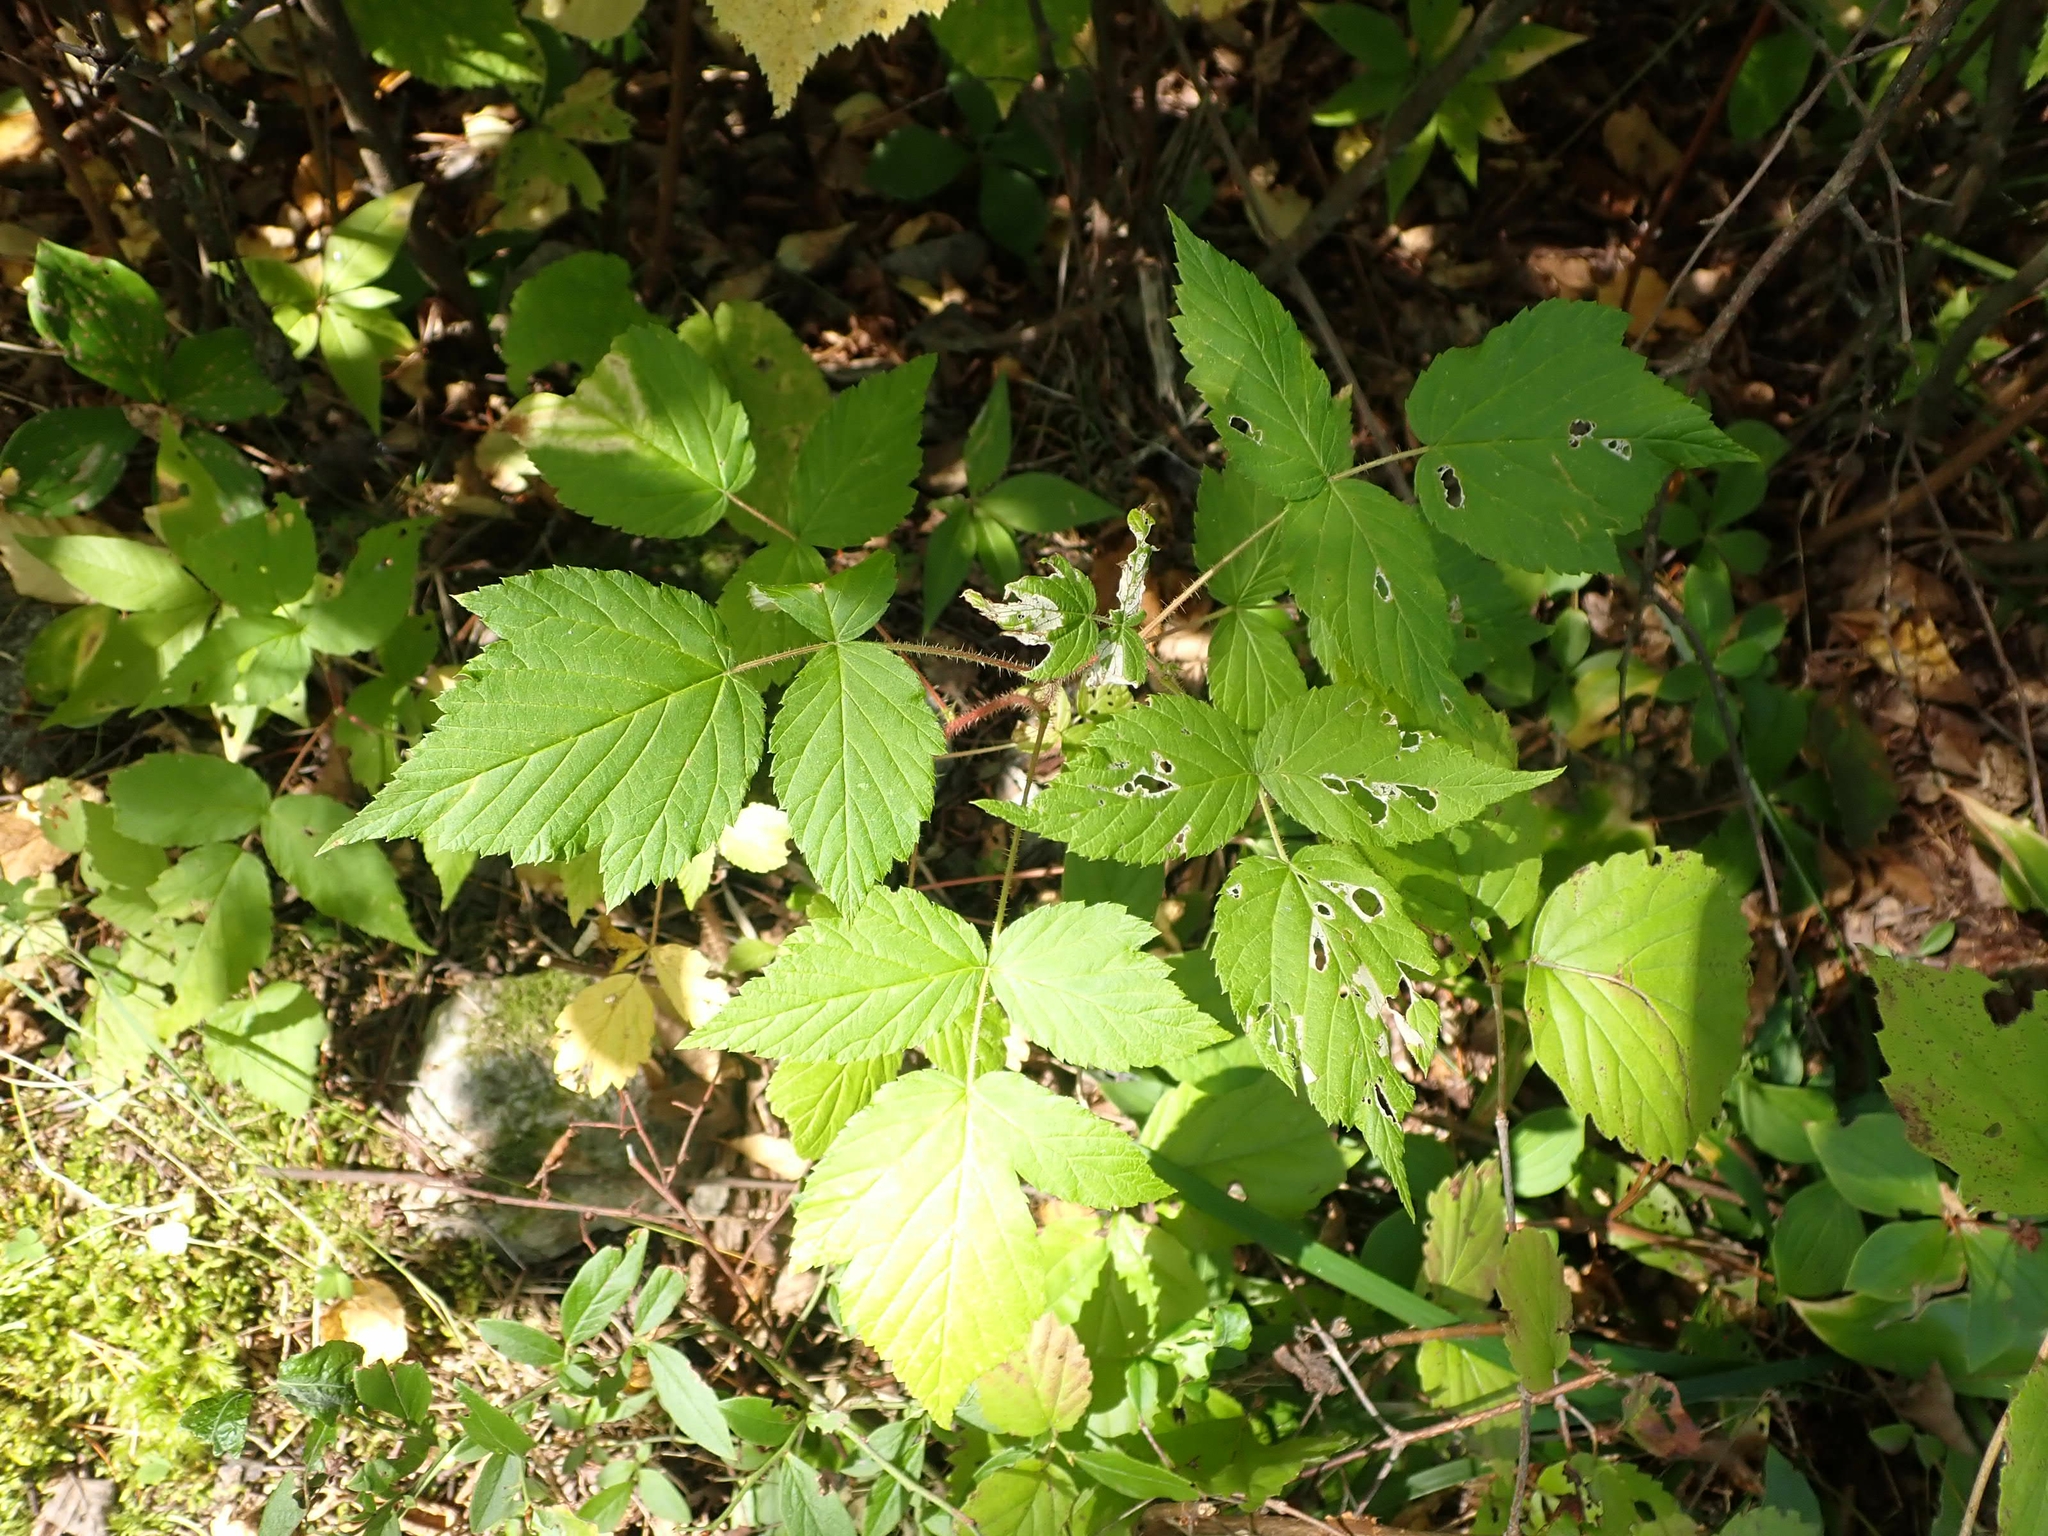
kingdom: Plantae
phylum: Tracheophyta
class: Magnoliopsida
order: Rosales
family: Rosaceae
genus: Rubus
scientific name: Rubus idaeus
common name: Raspberry
